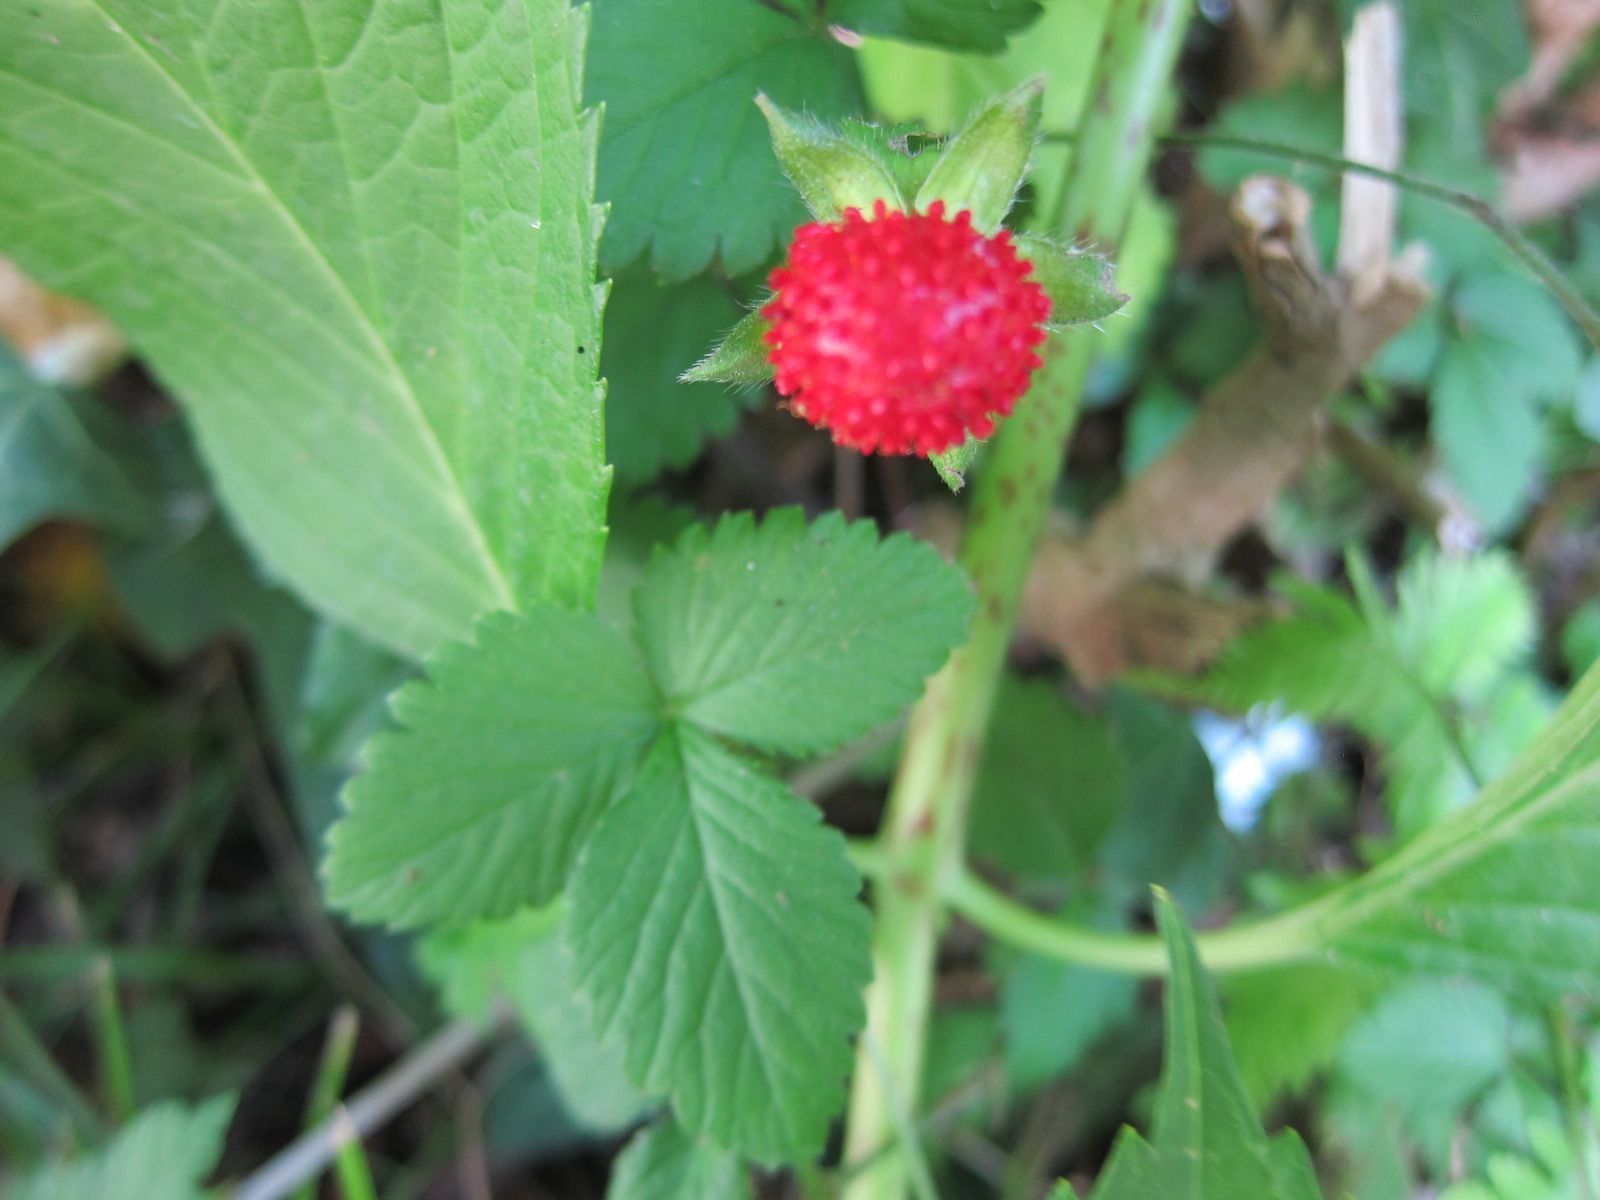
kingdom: Plantae
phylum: Tracheophyta
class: Magnoliopsida
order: Rosales
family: Rosaceae
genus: Potentilla
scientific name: Potentilla indica
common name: Yellow-flowered strawberry
